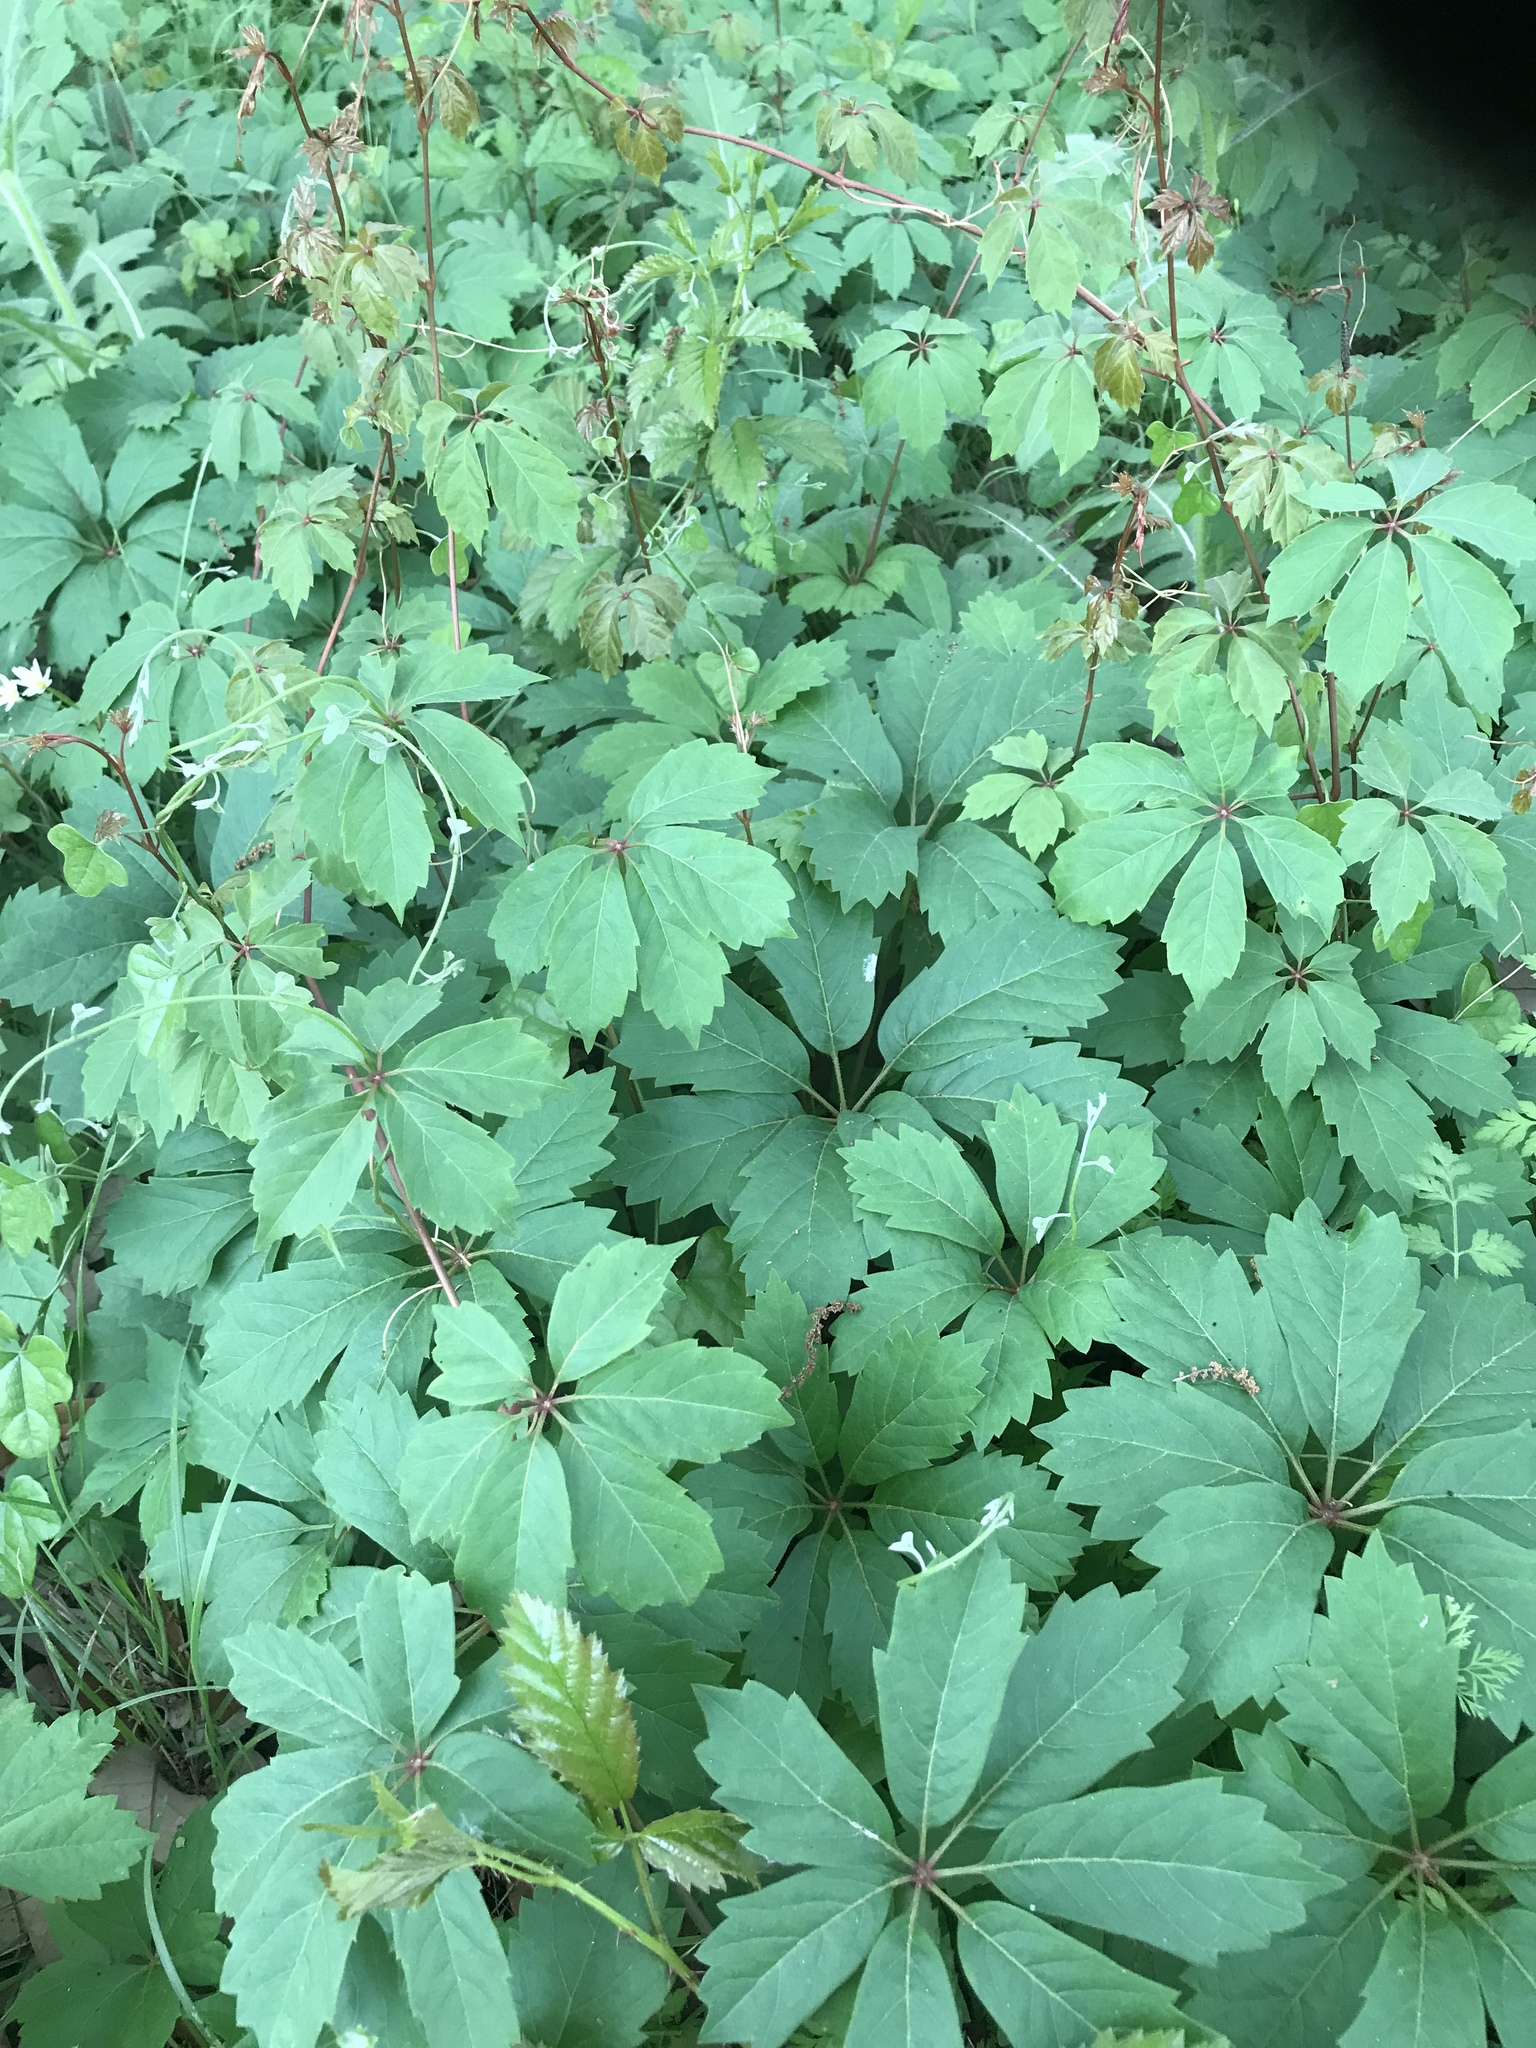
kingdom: Plantae
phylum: Tracheophyta
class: Magnoliopsida
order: Vitales
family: Vitaceae
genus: Parthenocissus
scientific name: Parthenocissus heptaphylla
